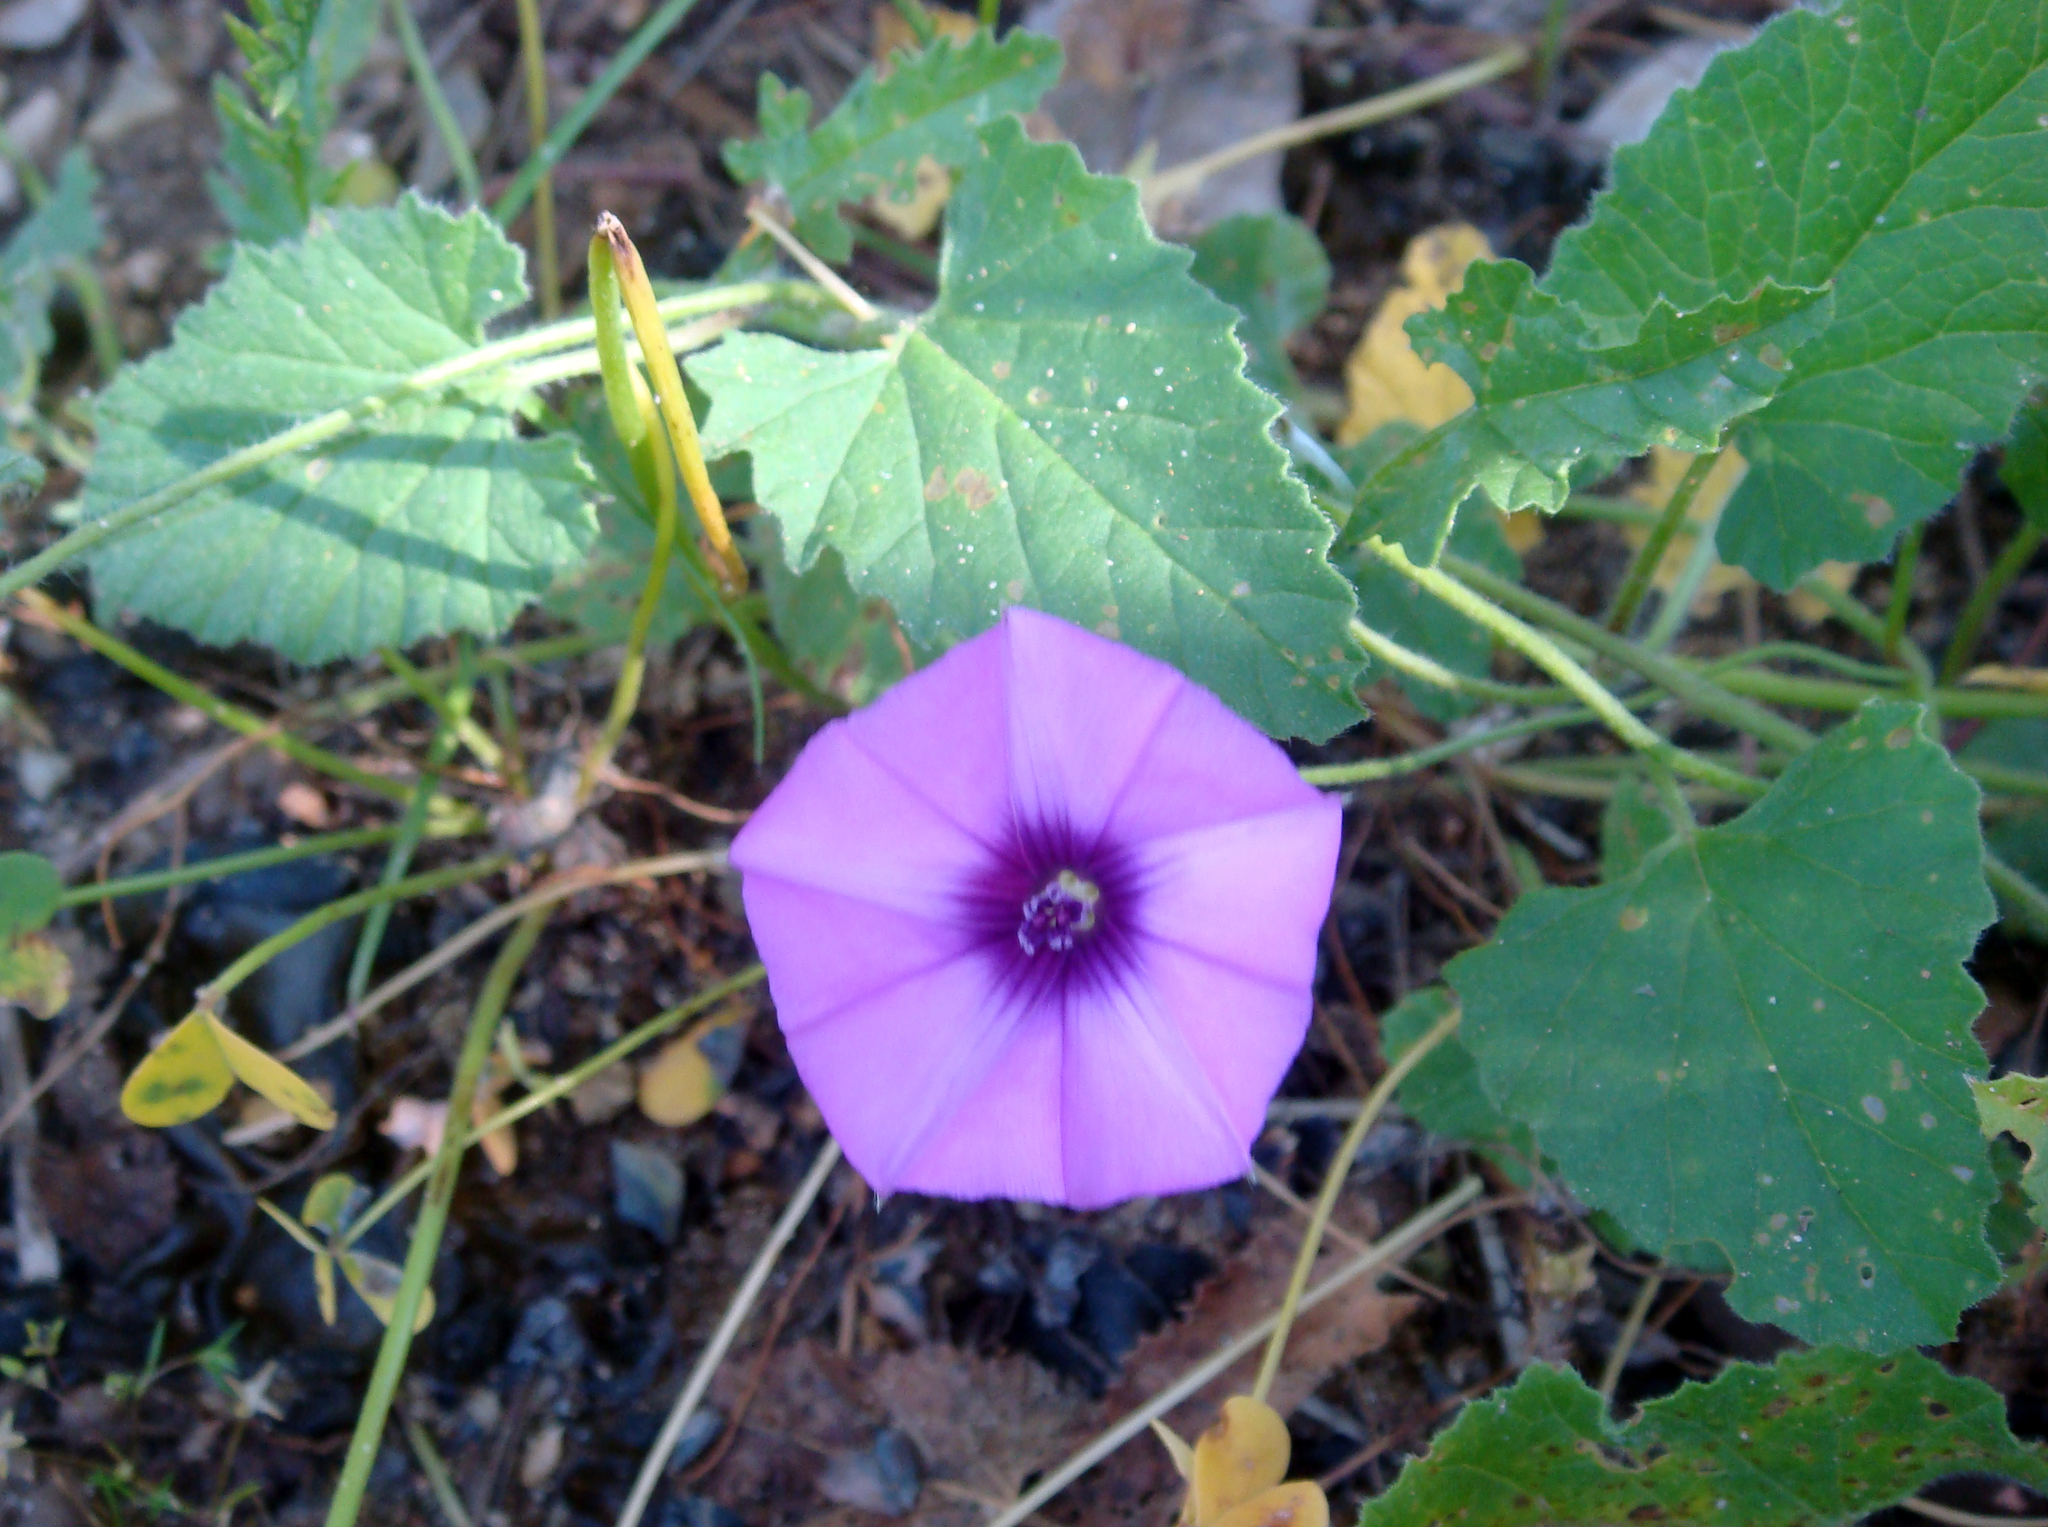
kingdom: Plantae
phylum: Tracheophyta
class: Magnoliopsida
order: Solanales
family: Convolvulaceae
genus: Convolvulus
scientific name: Convolvulus althaeoides
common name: Mallow bindweed
